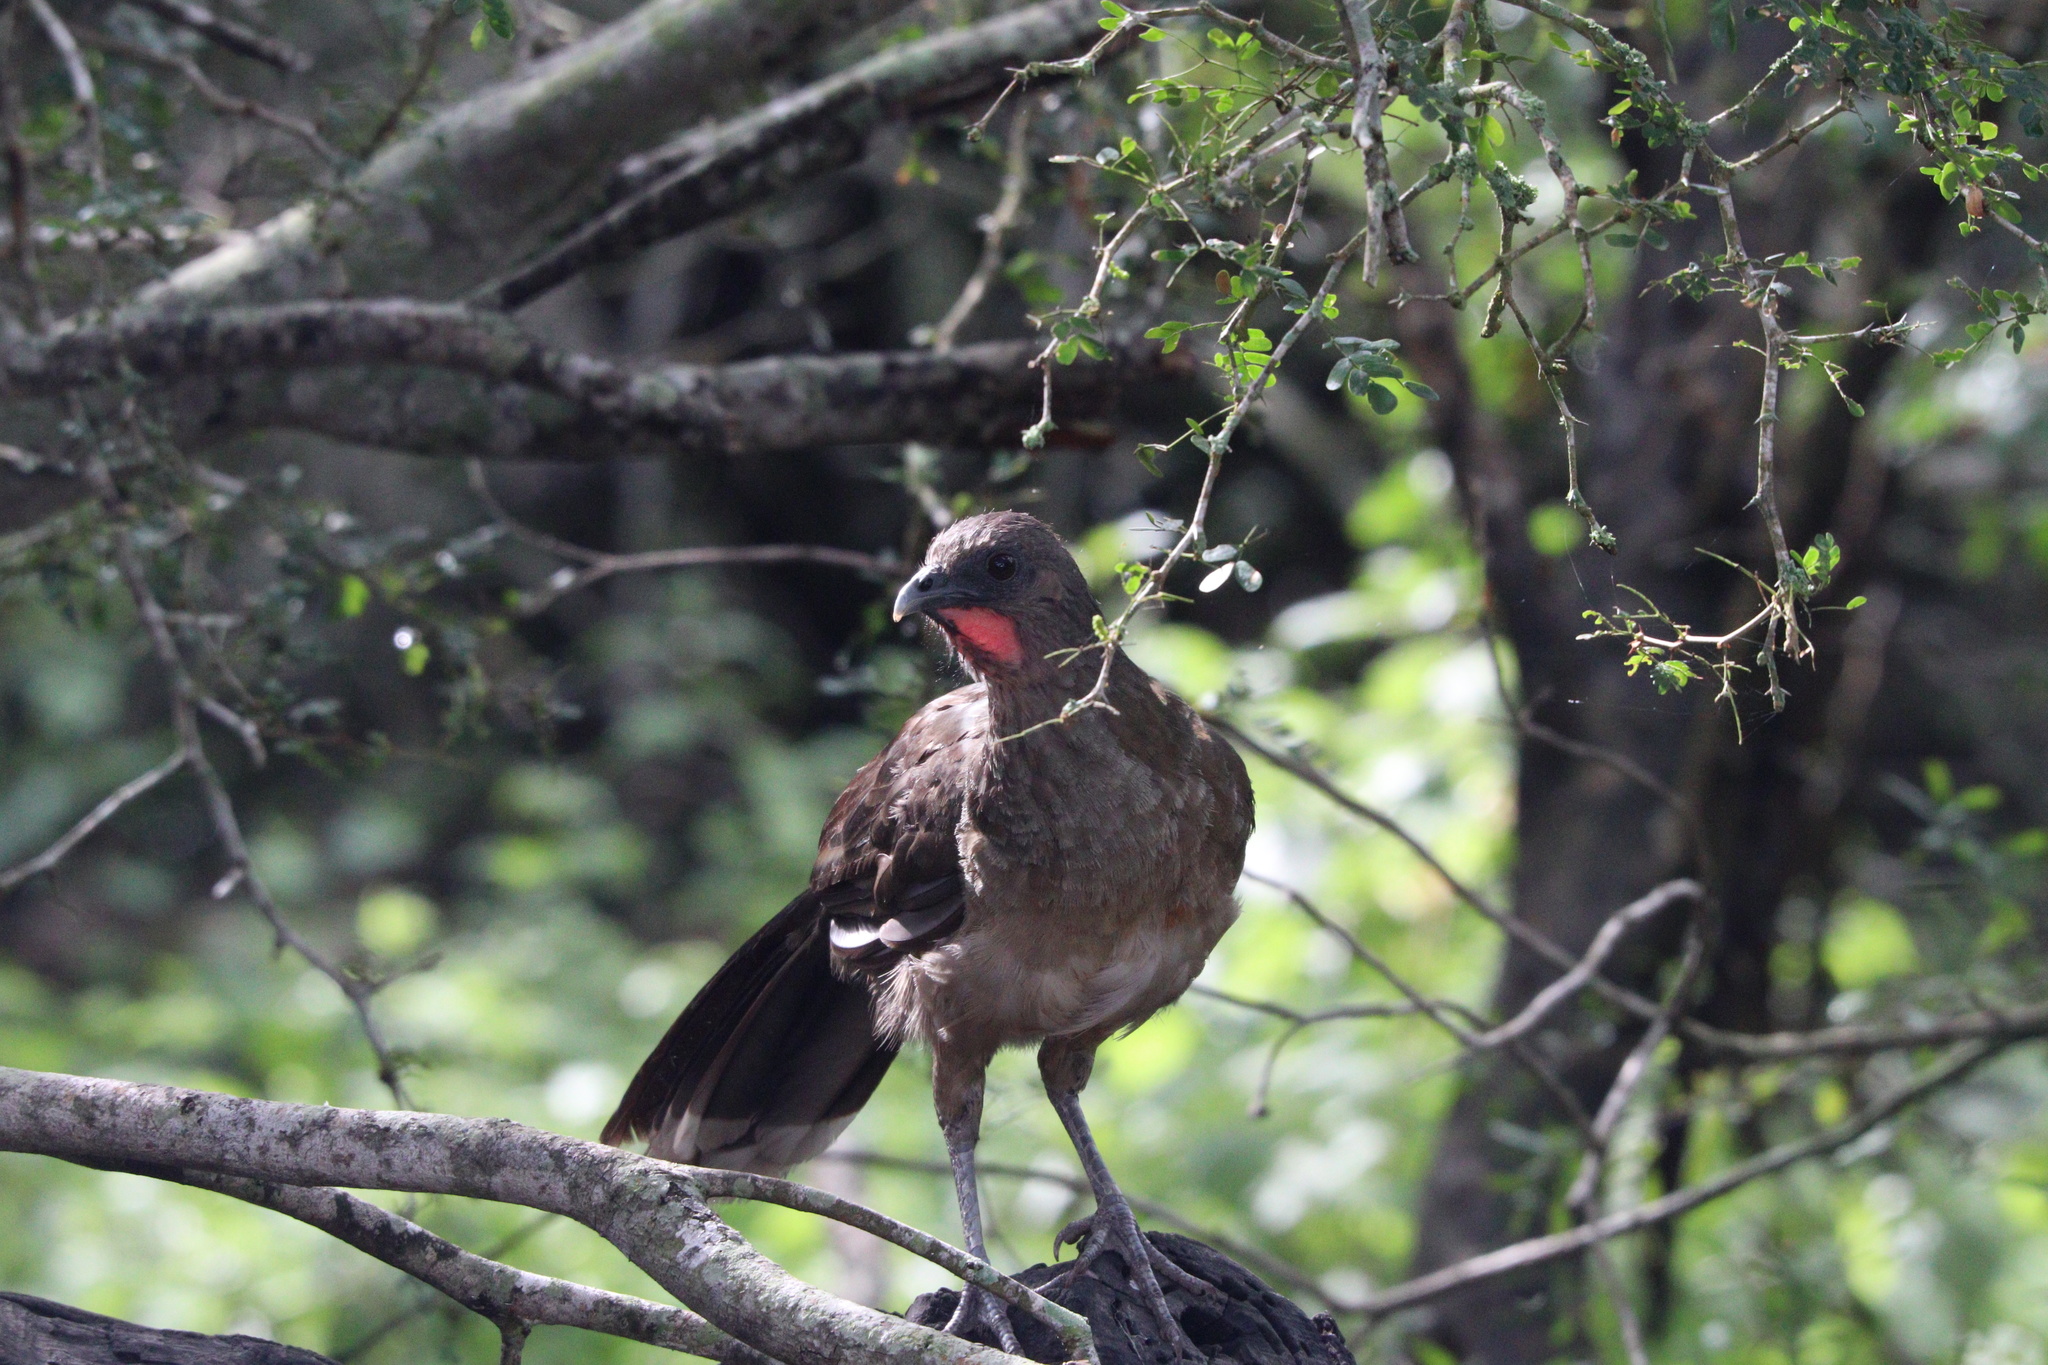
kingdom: Animalia
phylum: Chordata
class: Aves
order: Galliformes
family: Cracidae
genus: Ortalis
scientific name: Ortalis vetula
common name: Plain chachalaca
